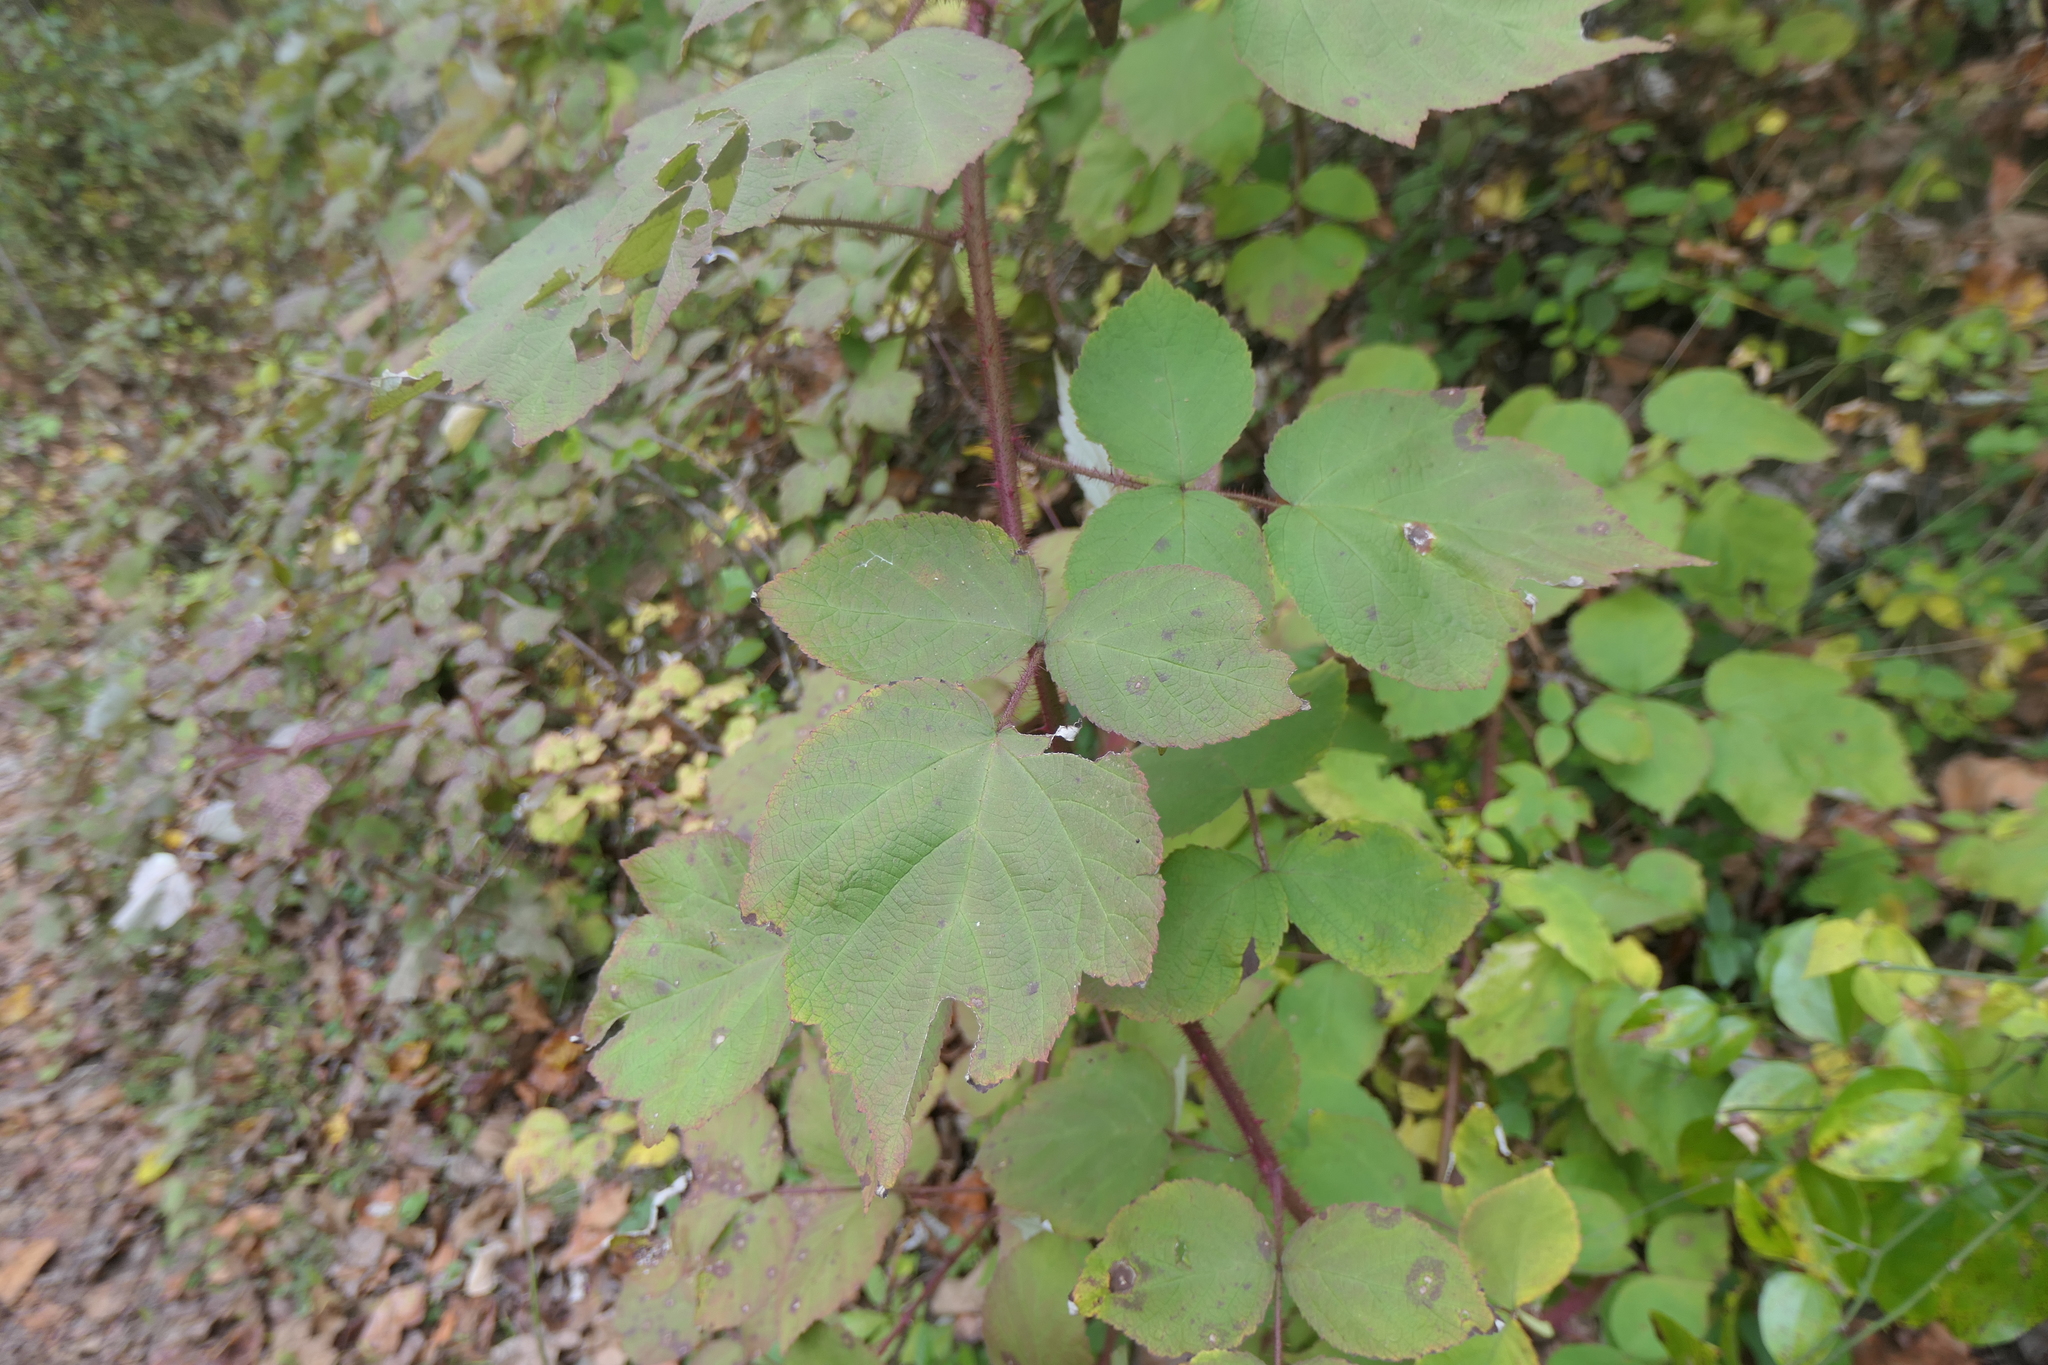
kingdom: Plantae
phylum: Tracheophyta
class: Magnoliopsida
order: Rosales
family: Rosaceae
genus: Rubus
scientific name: Rubus phoenicolasius
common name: Japanese wineberry
